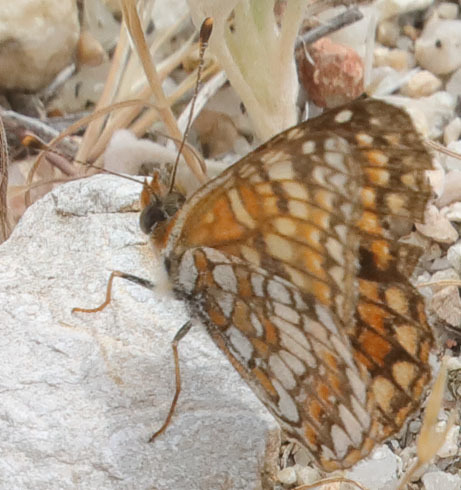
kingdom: Animalia
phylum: Arthropoda
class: Insecta
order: Lepidoptera
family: Nymphalidae
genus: Chlosyne
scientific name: Chlosyne gabbii
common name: Gabb's checkerspot
